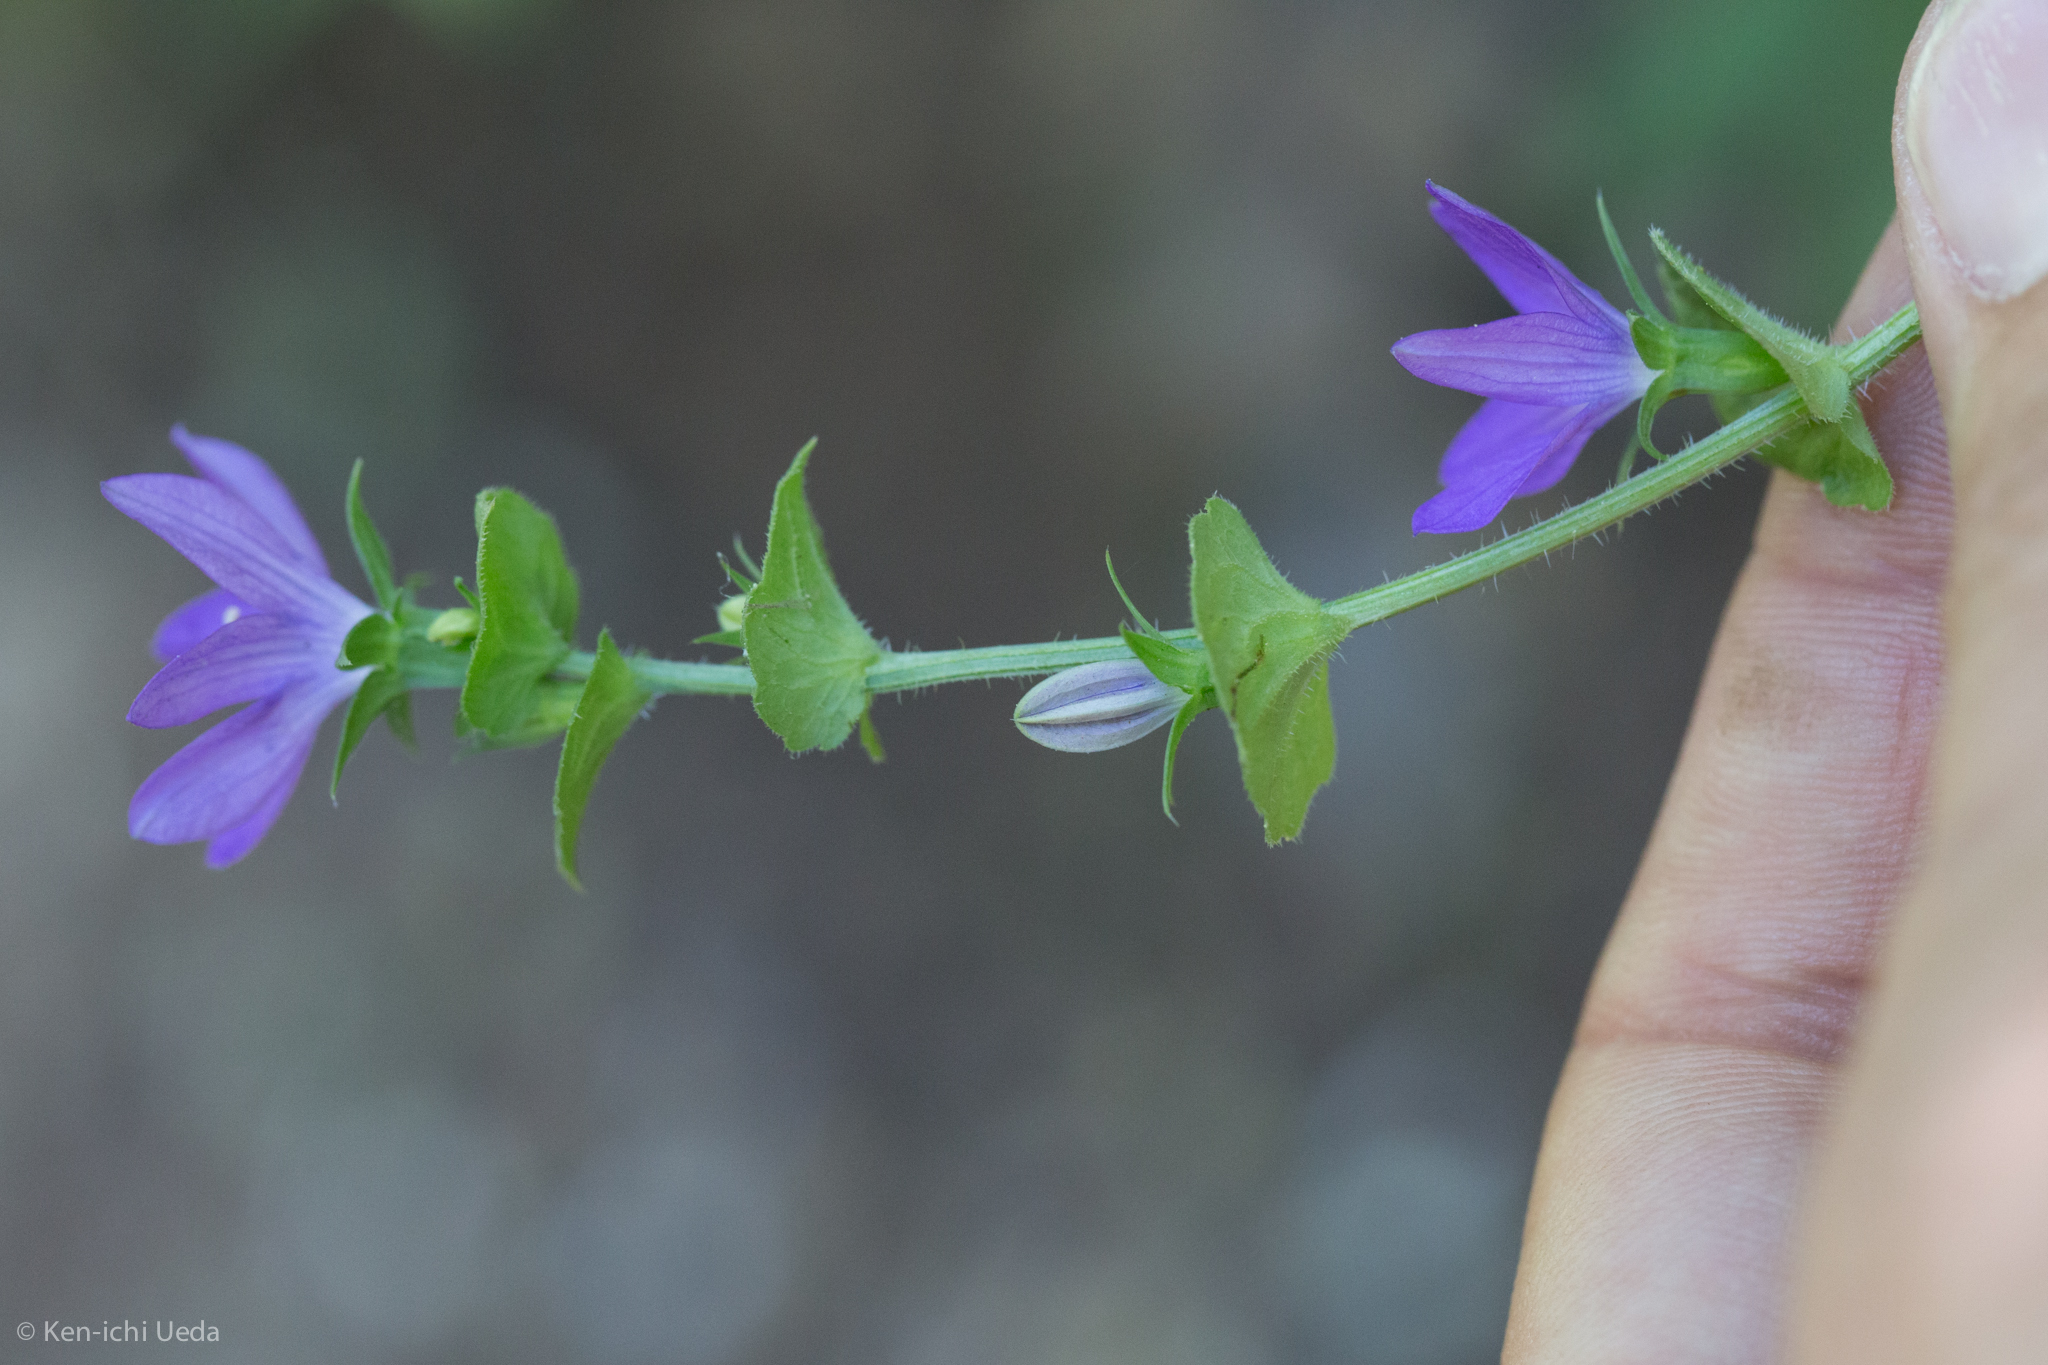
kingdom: Plantae
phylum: Tracheophyta
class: Magnoliopsida
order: Asterales
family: Campanulaceae
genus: Triodanis
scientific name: Triodanis perfoliata
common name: Clasping venus' looking-glass
